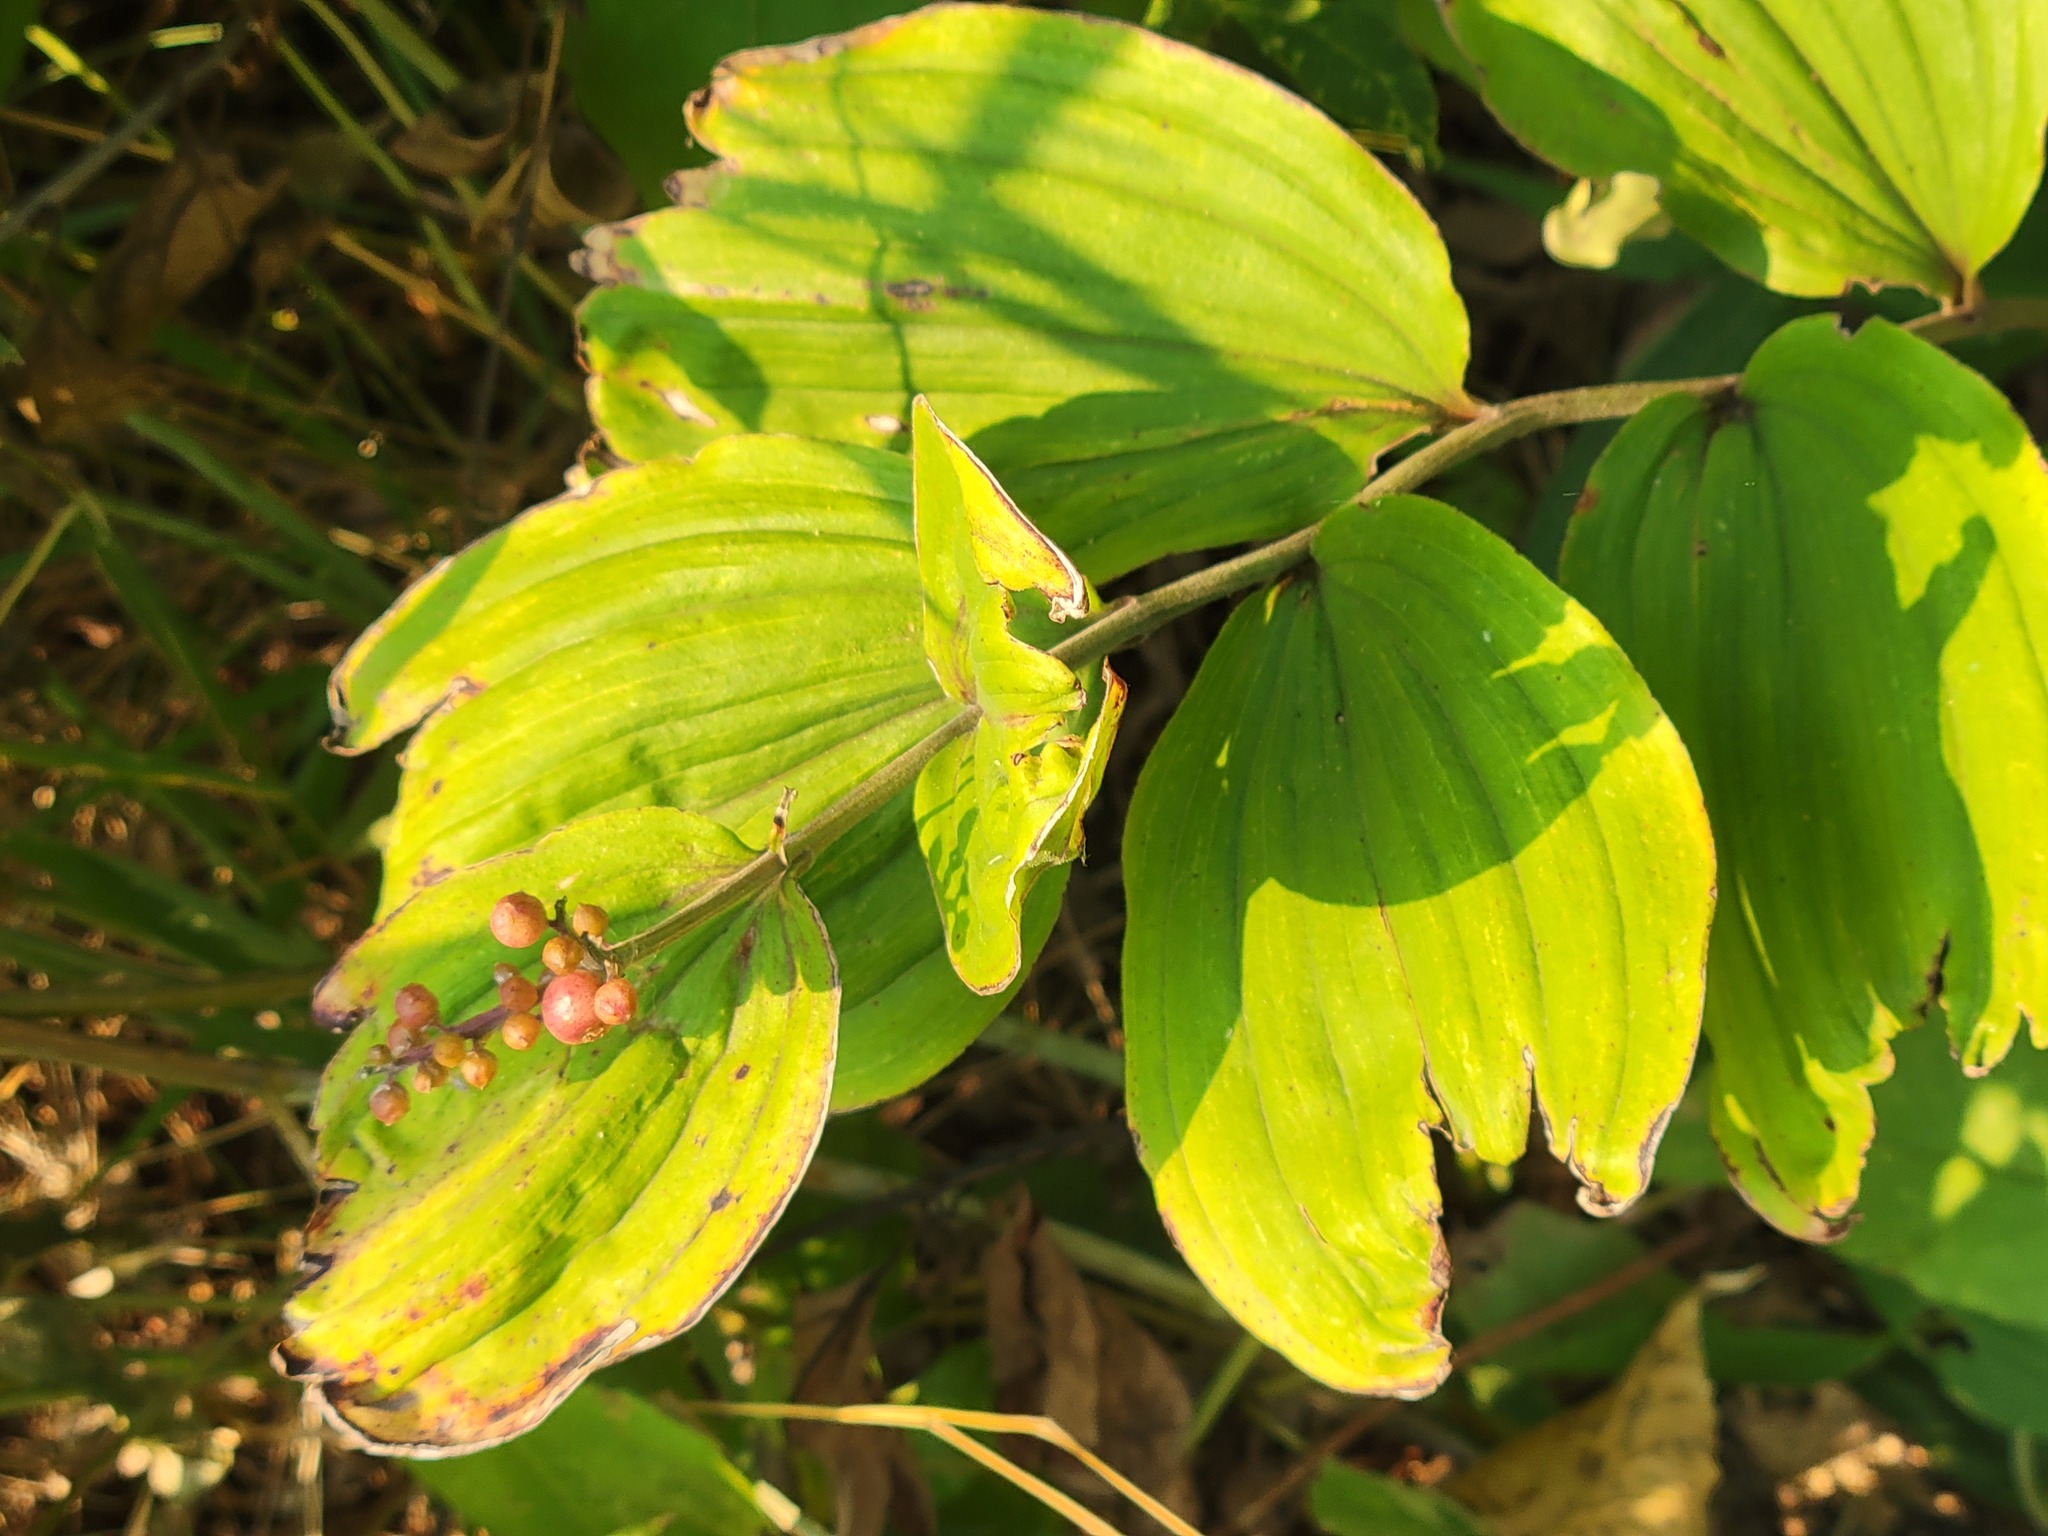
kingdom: Plantae
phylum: Tracheophyta
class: Liliopsida
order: Asparagales
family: Asparagaceae
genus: Maianthemum
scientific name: Maianthemum racemosum
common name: False spikenard
